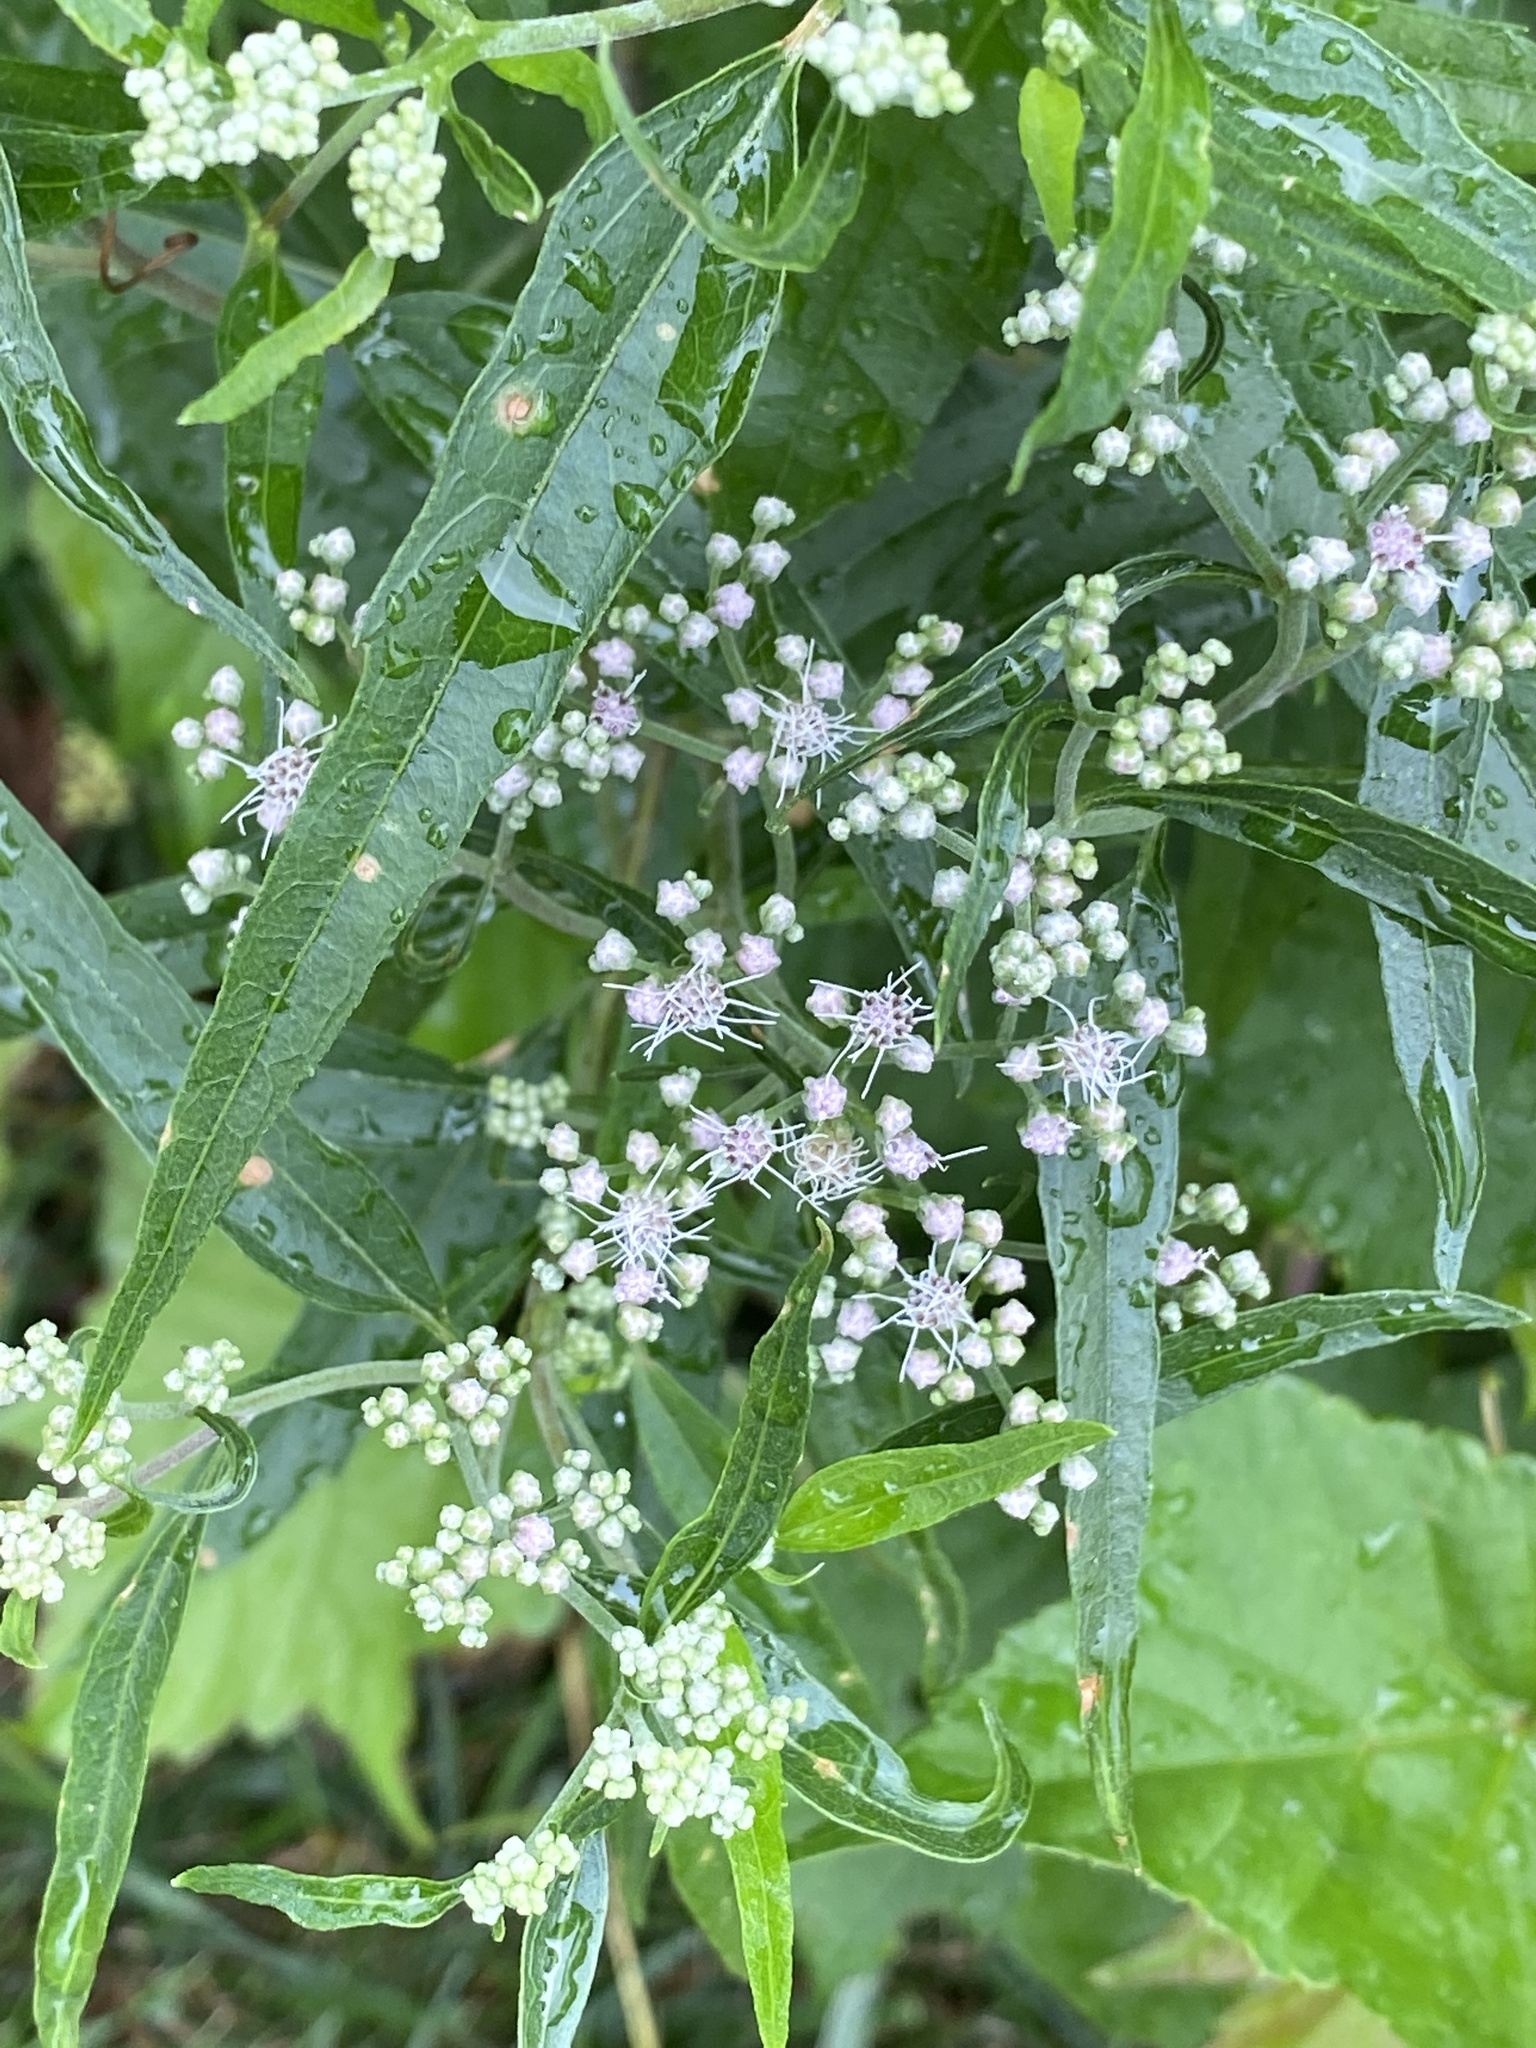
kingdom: Plantae
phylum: Tracheophyta
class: Magnoliopsida
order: Asterales
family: Asteraceae
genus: Eupatorium
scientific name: Eupatorium serotinum
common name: Late boneset
